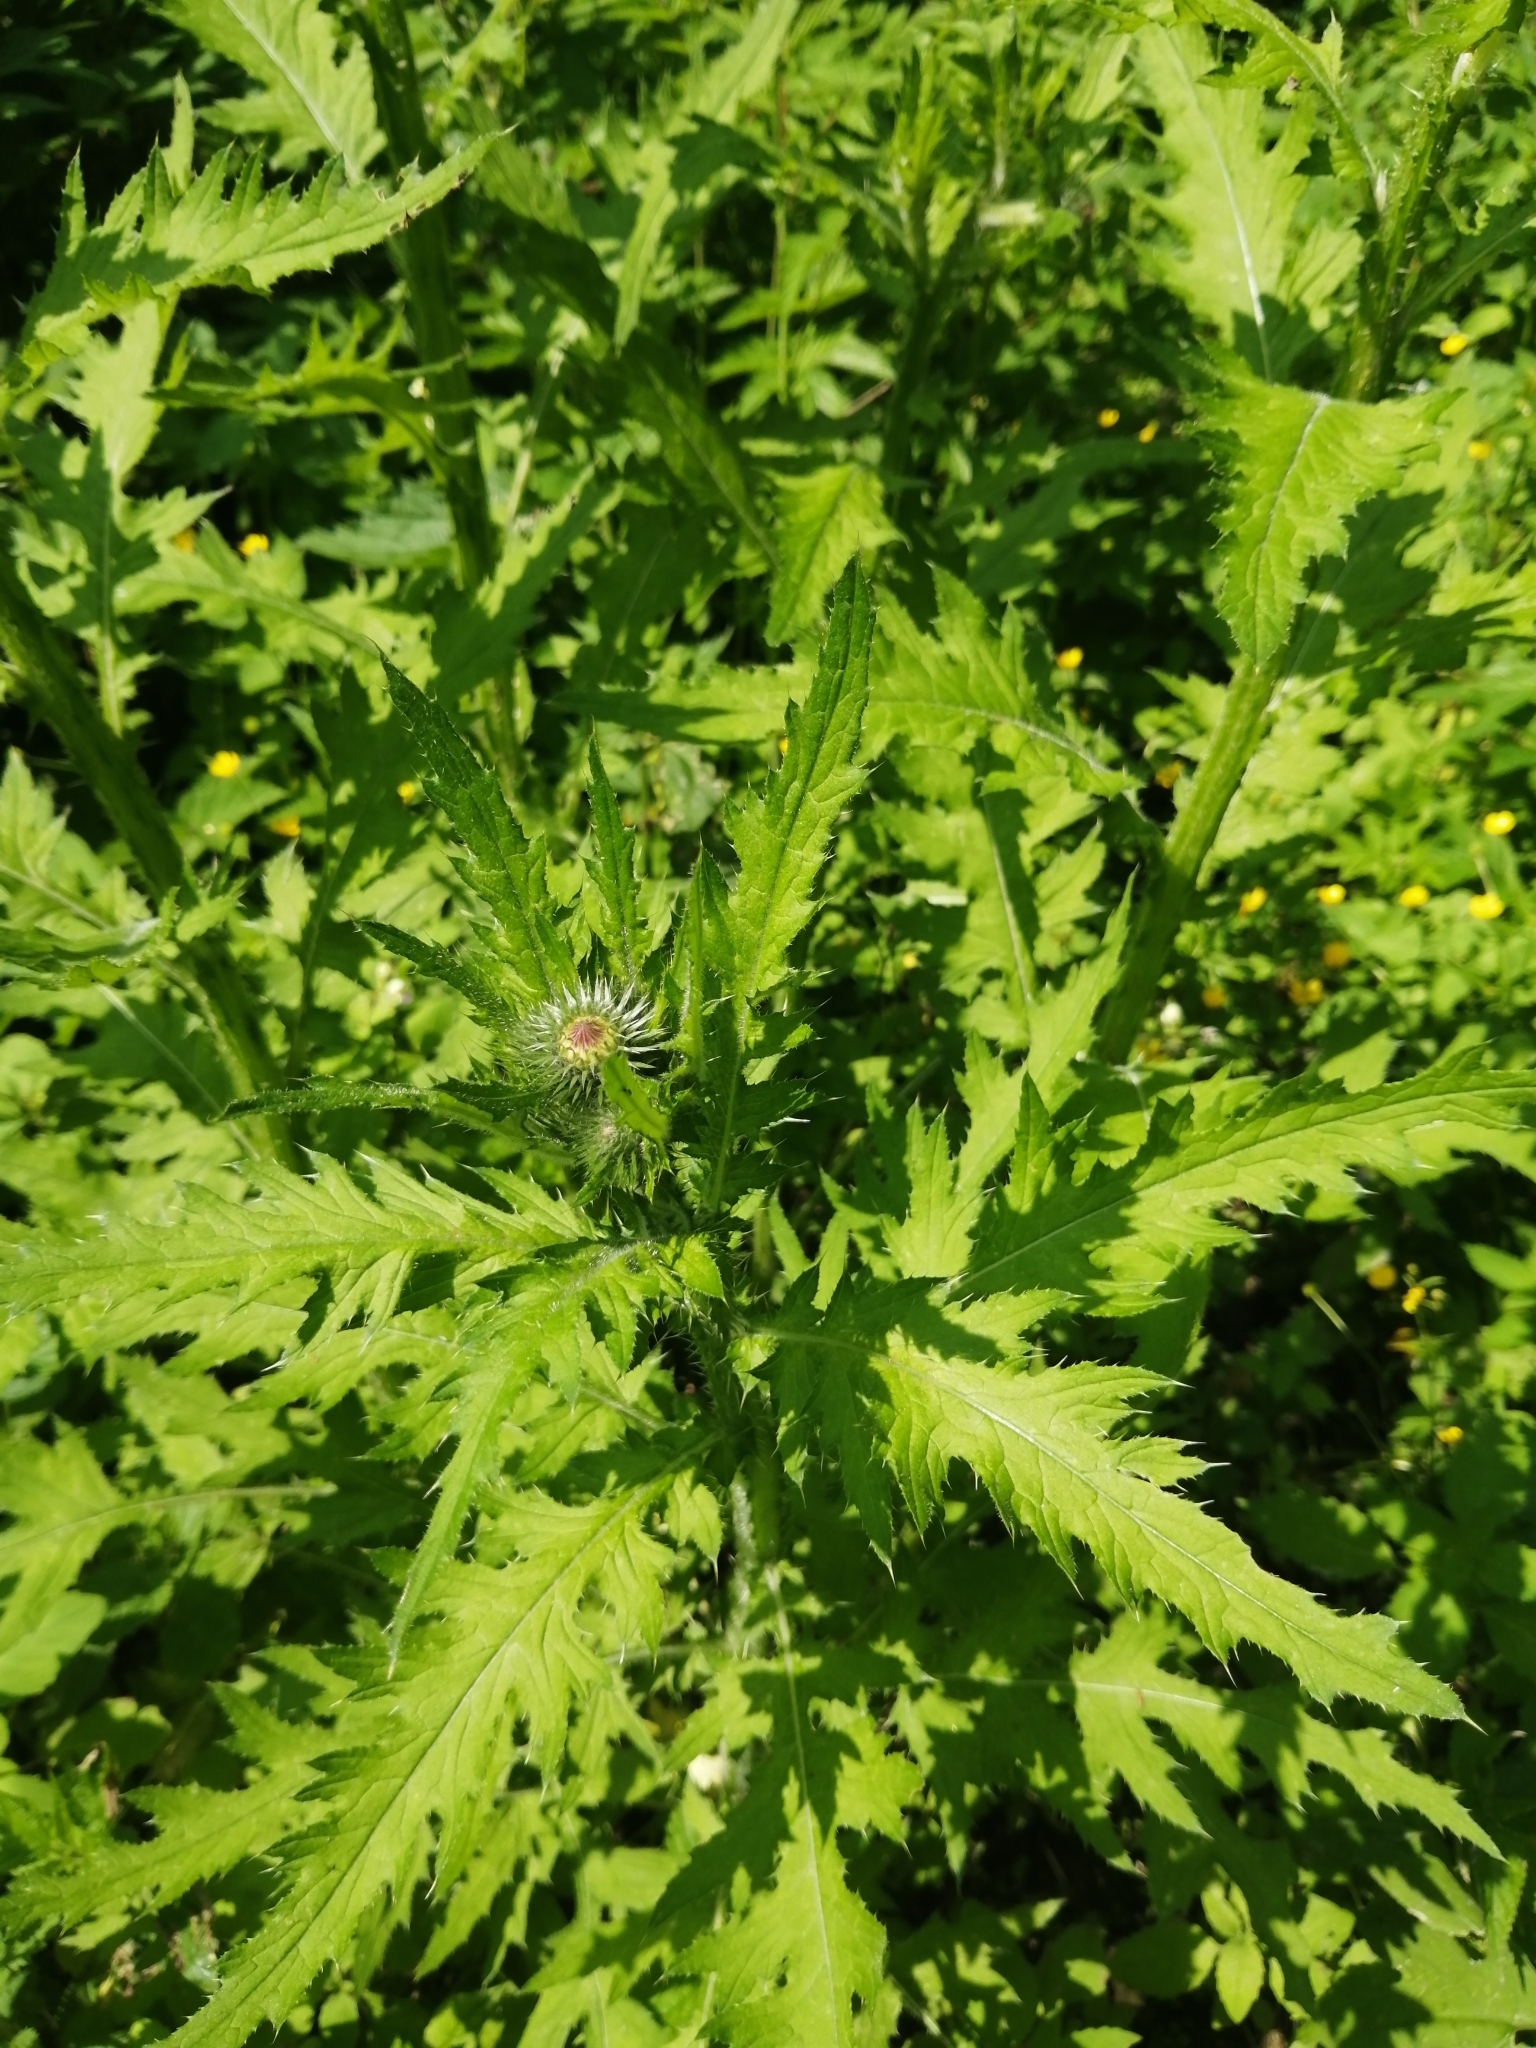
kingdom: Plantae
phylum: Tracheophyta
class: Magnoliopsida
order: Asterales
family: Asteraceae
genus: Carduus
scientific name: Carduus crispus
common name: Welted thistle
